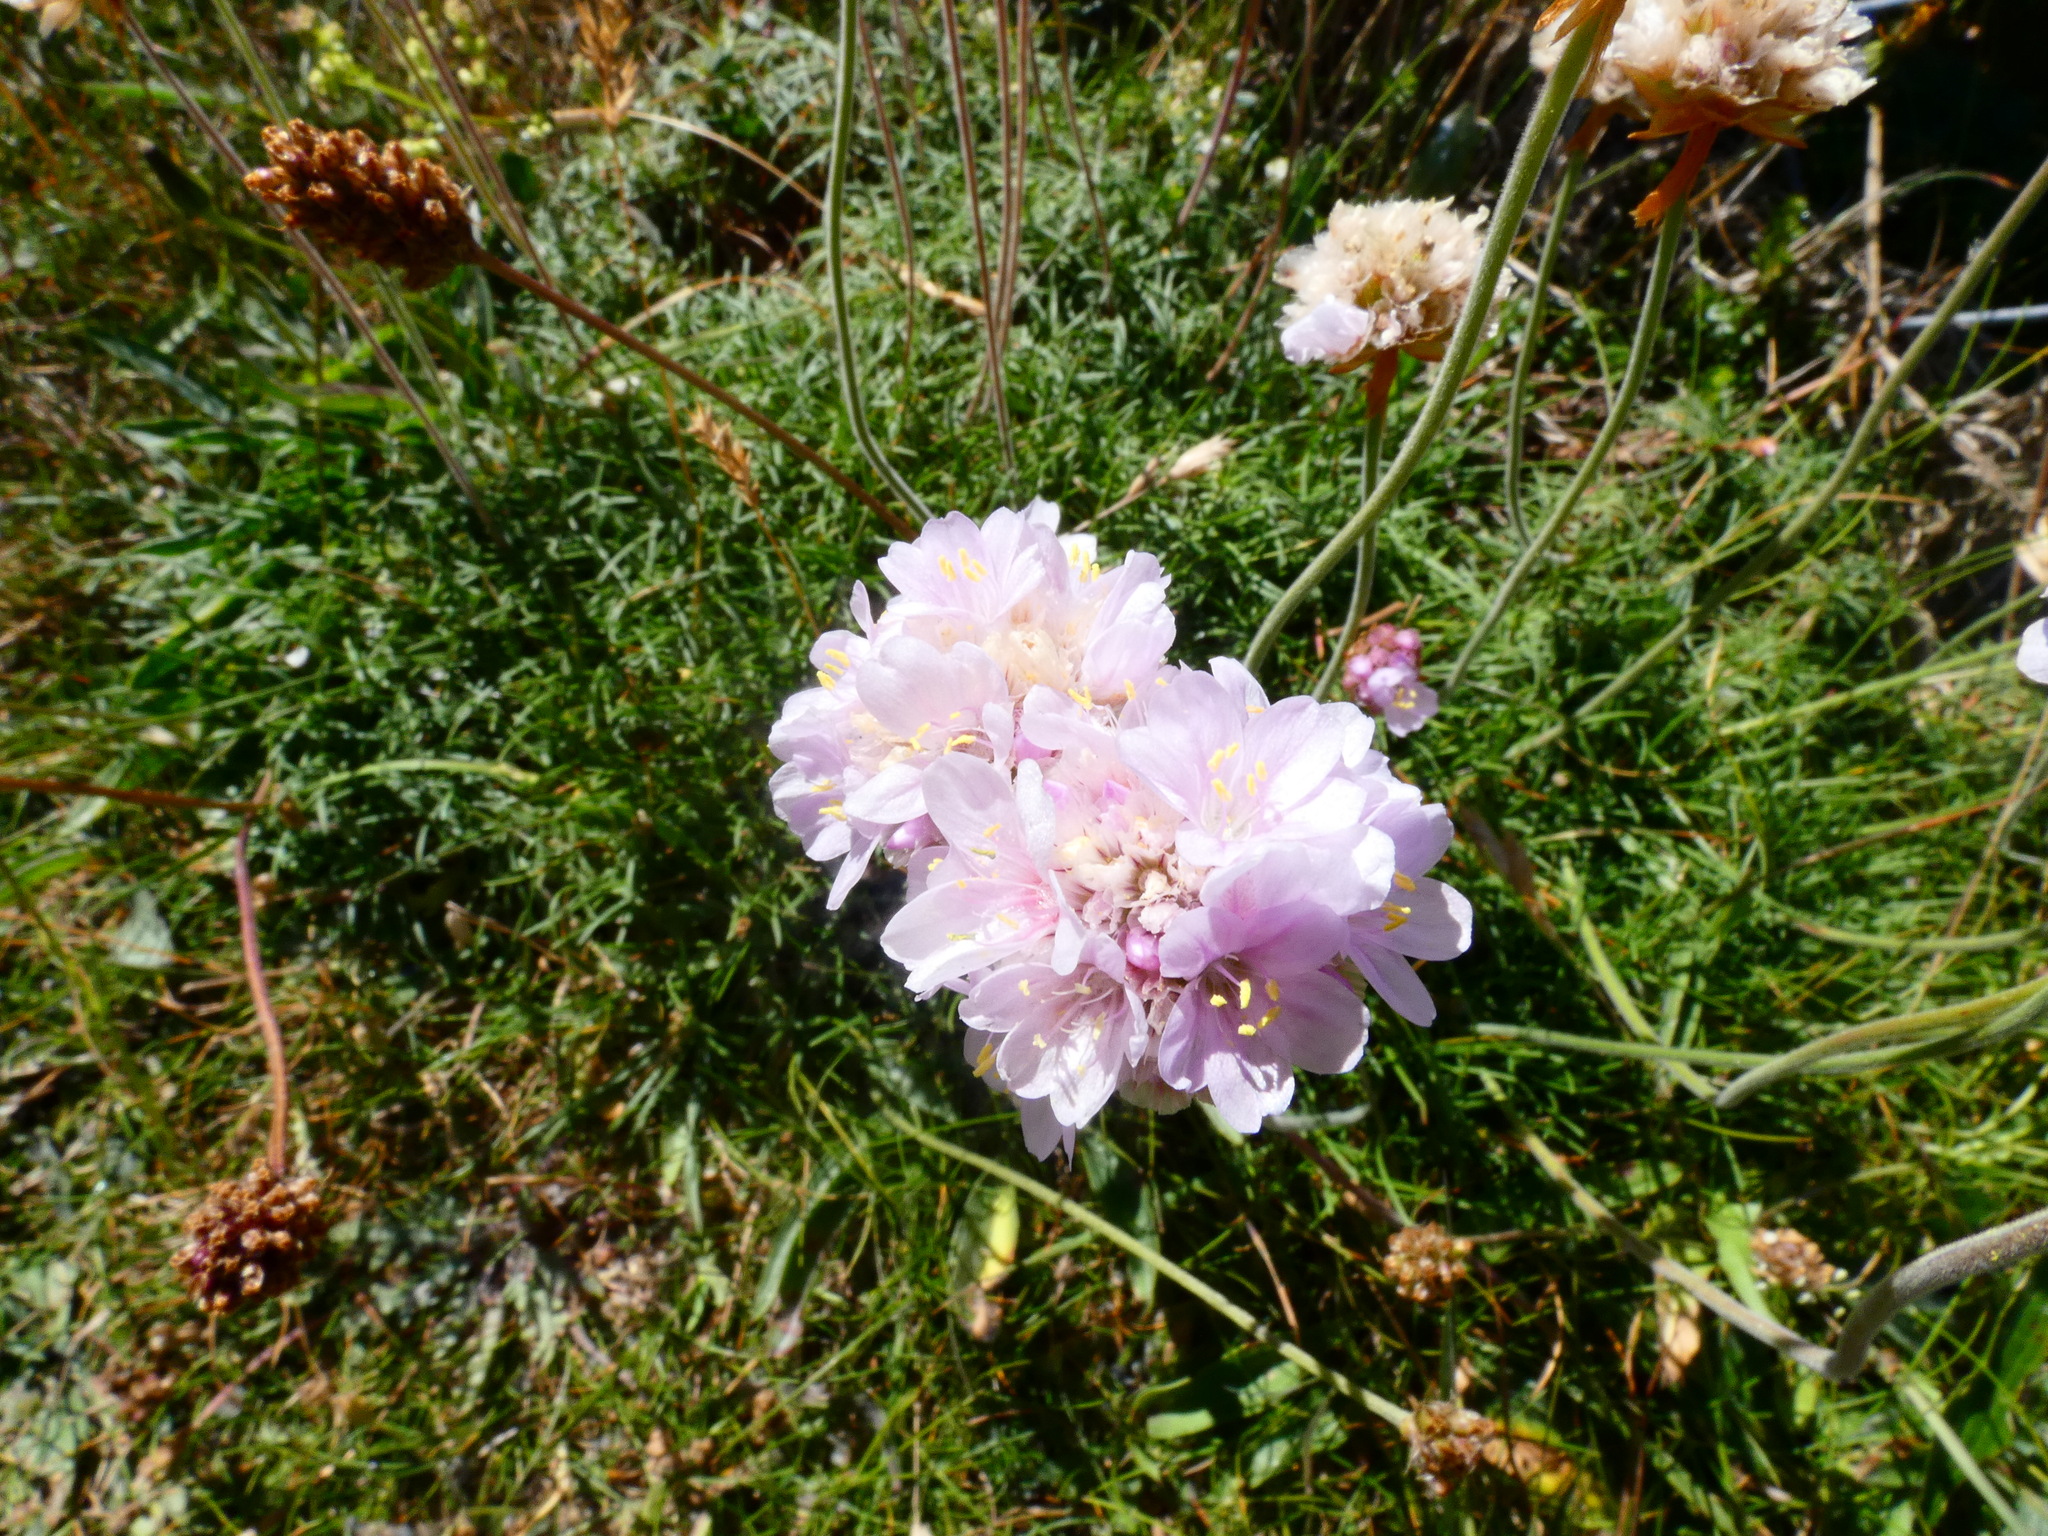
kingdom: Plantae
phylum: Tracheophyta
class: Magnoliopsida
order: Caryophyllales
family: Plumbaginaceae
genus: Armeria
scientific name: Armeria maritima
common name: Thrift
